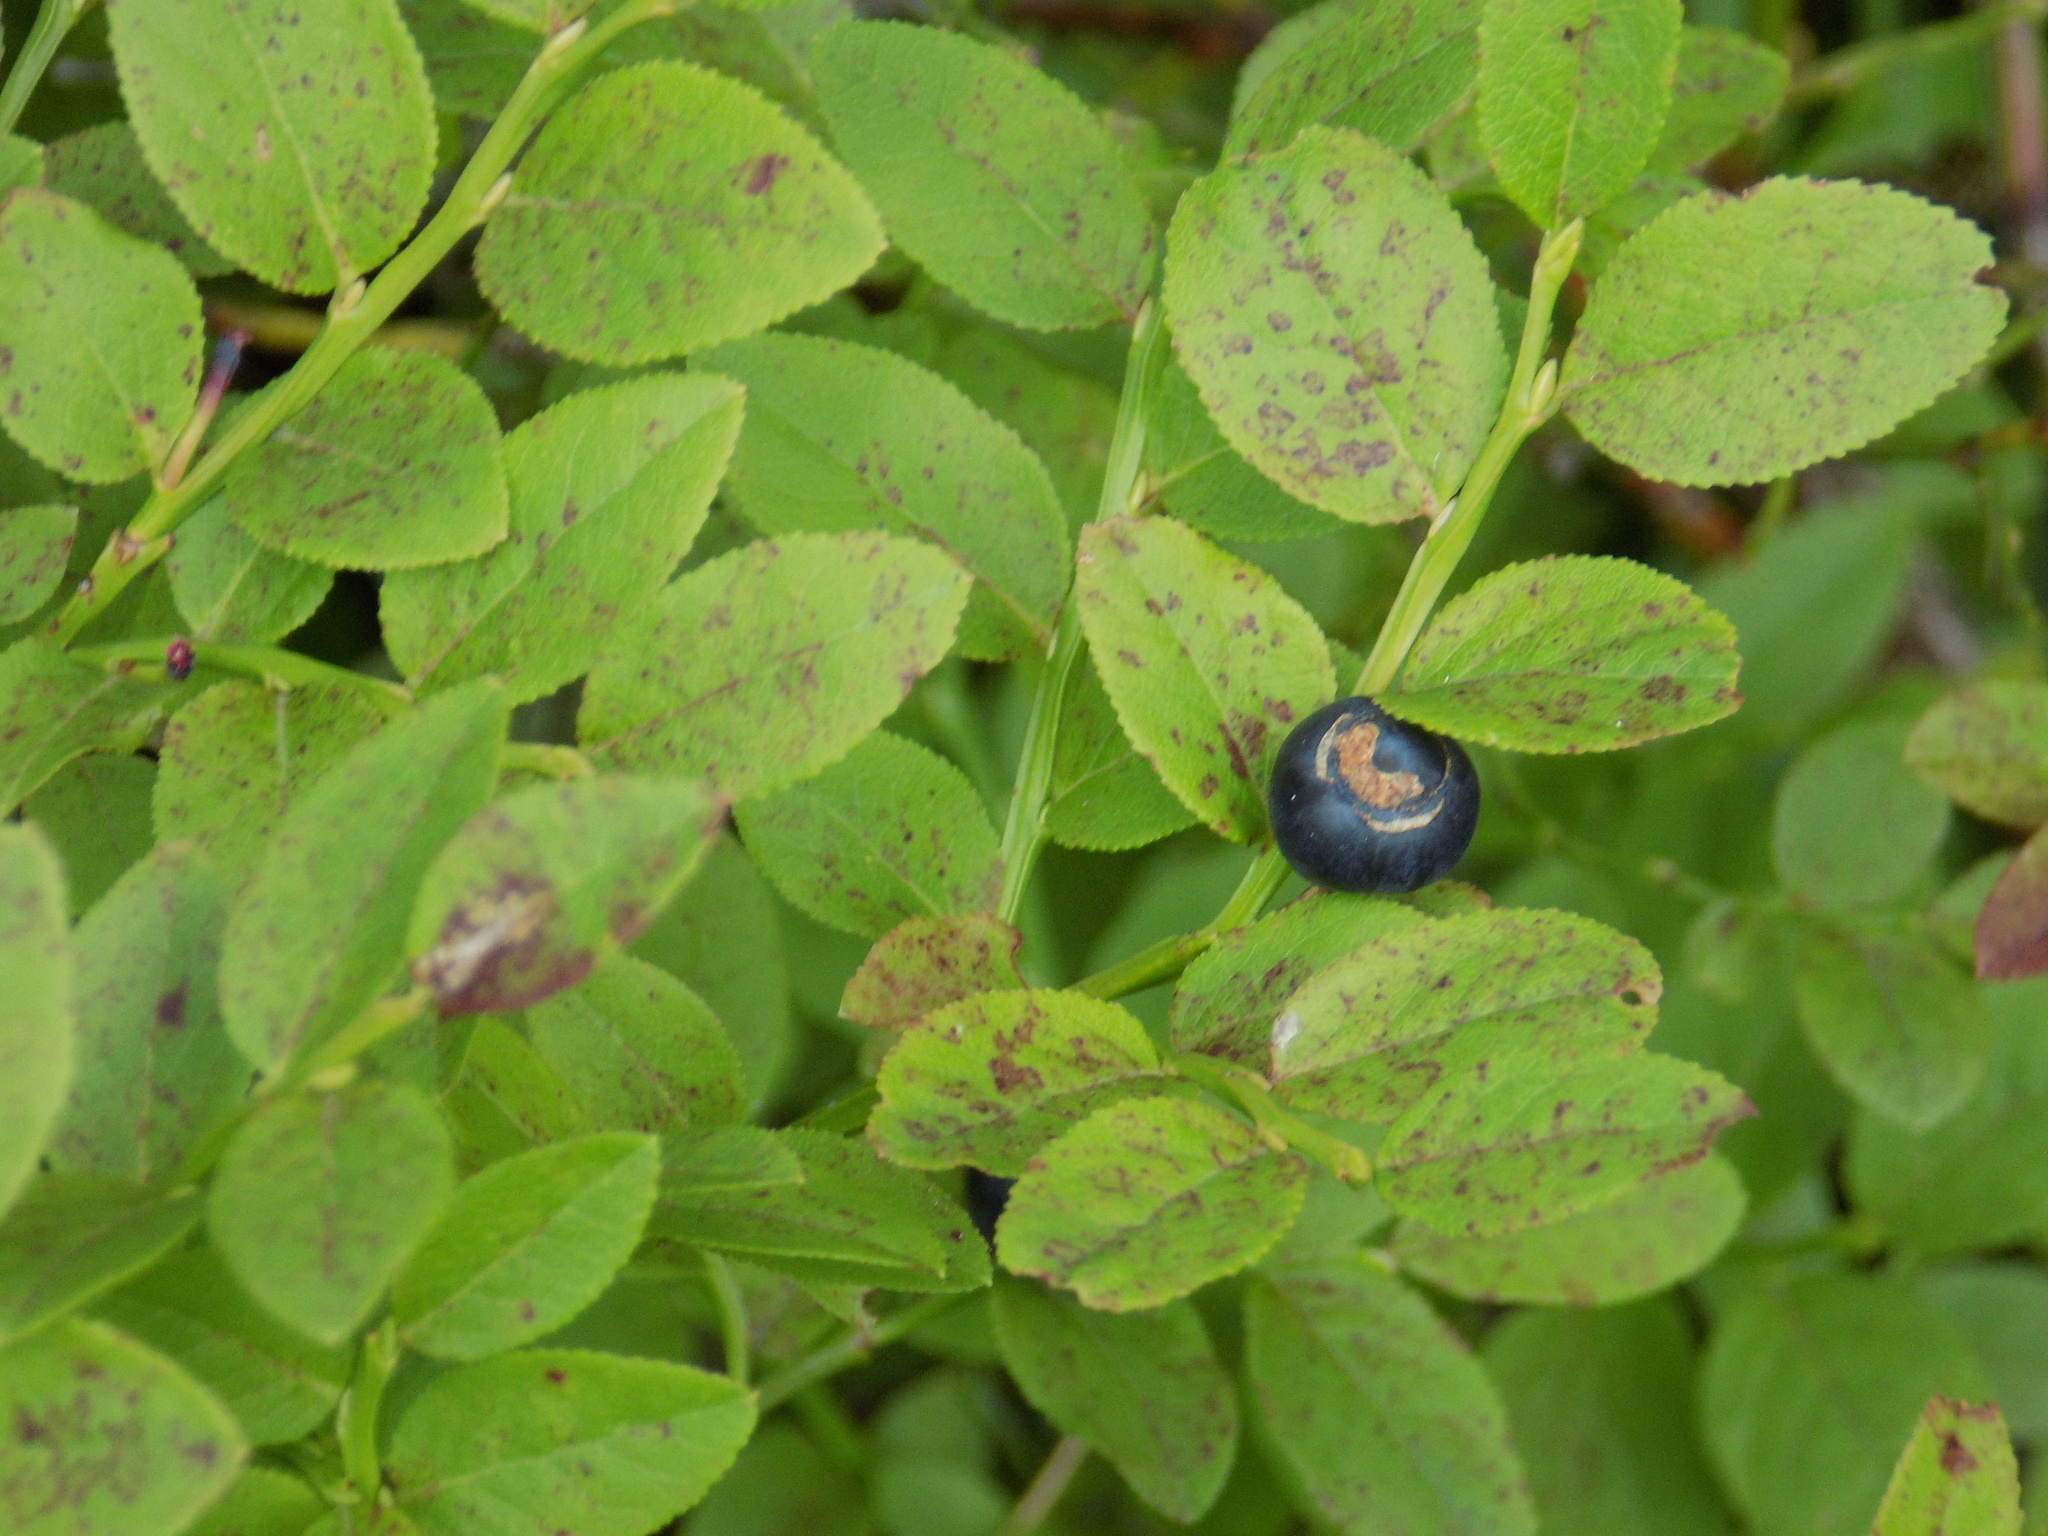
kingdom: Plantae
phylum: Tracheophyta
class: Magnoliopsida
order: Ericales
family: Ericaceae
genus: Vaccinium
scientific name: Vaccinium myrtillus
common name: Bilberry
